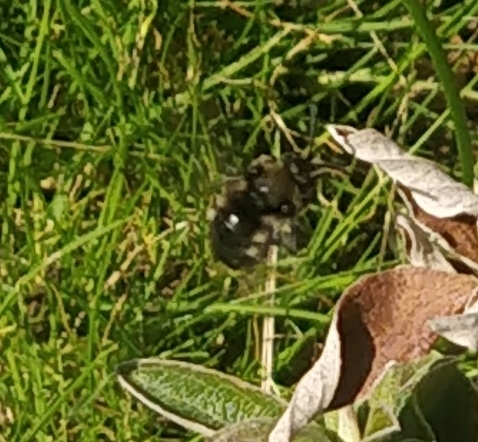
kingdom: Animalia
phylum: Arthropoda
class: Insecta
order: Hymenoptera
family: Apidae
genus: Melecta
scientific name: Melecta albifrons
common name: Common mourning bee
